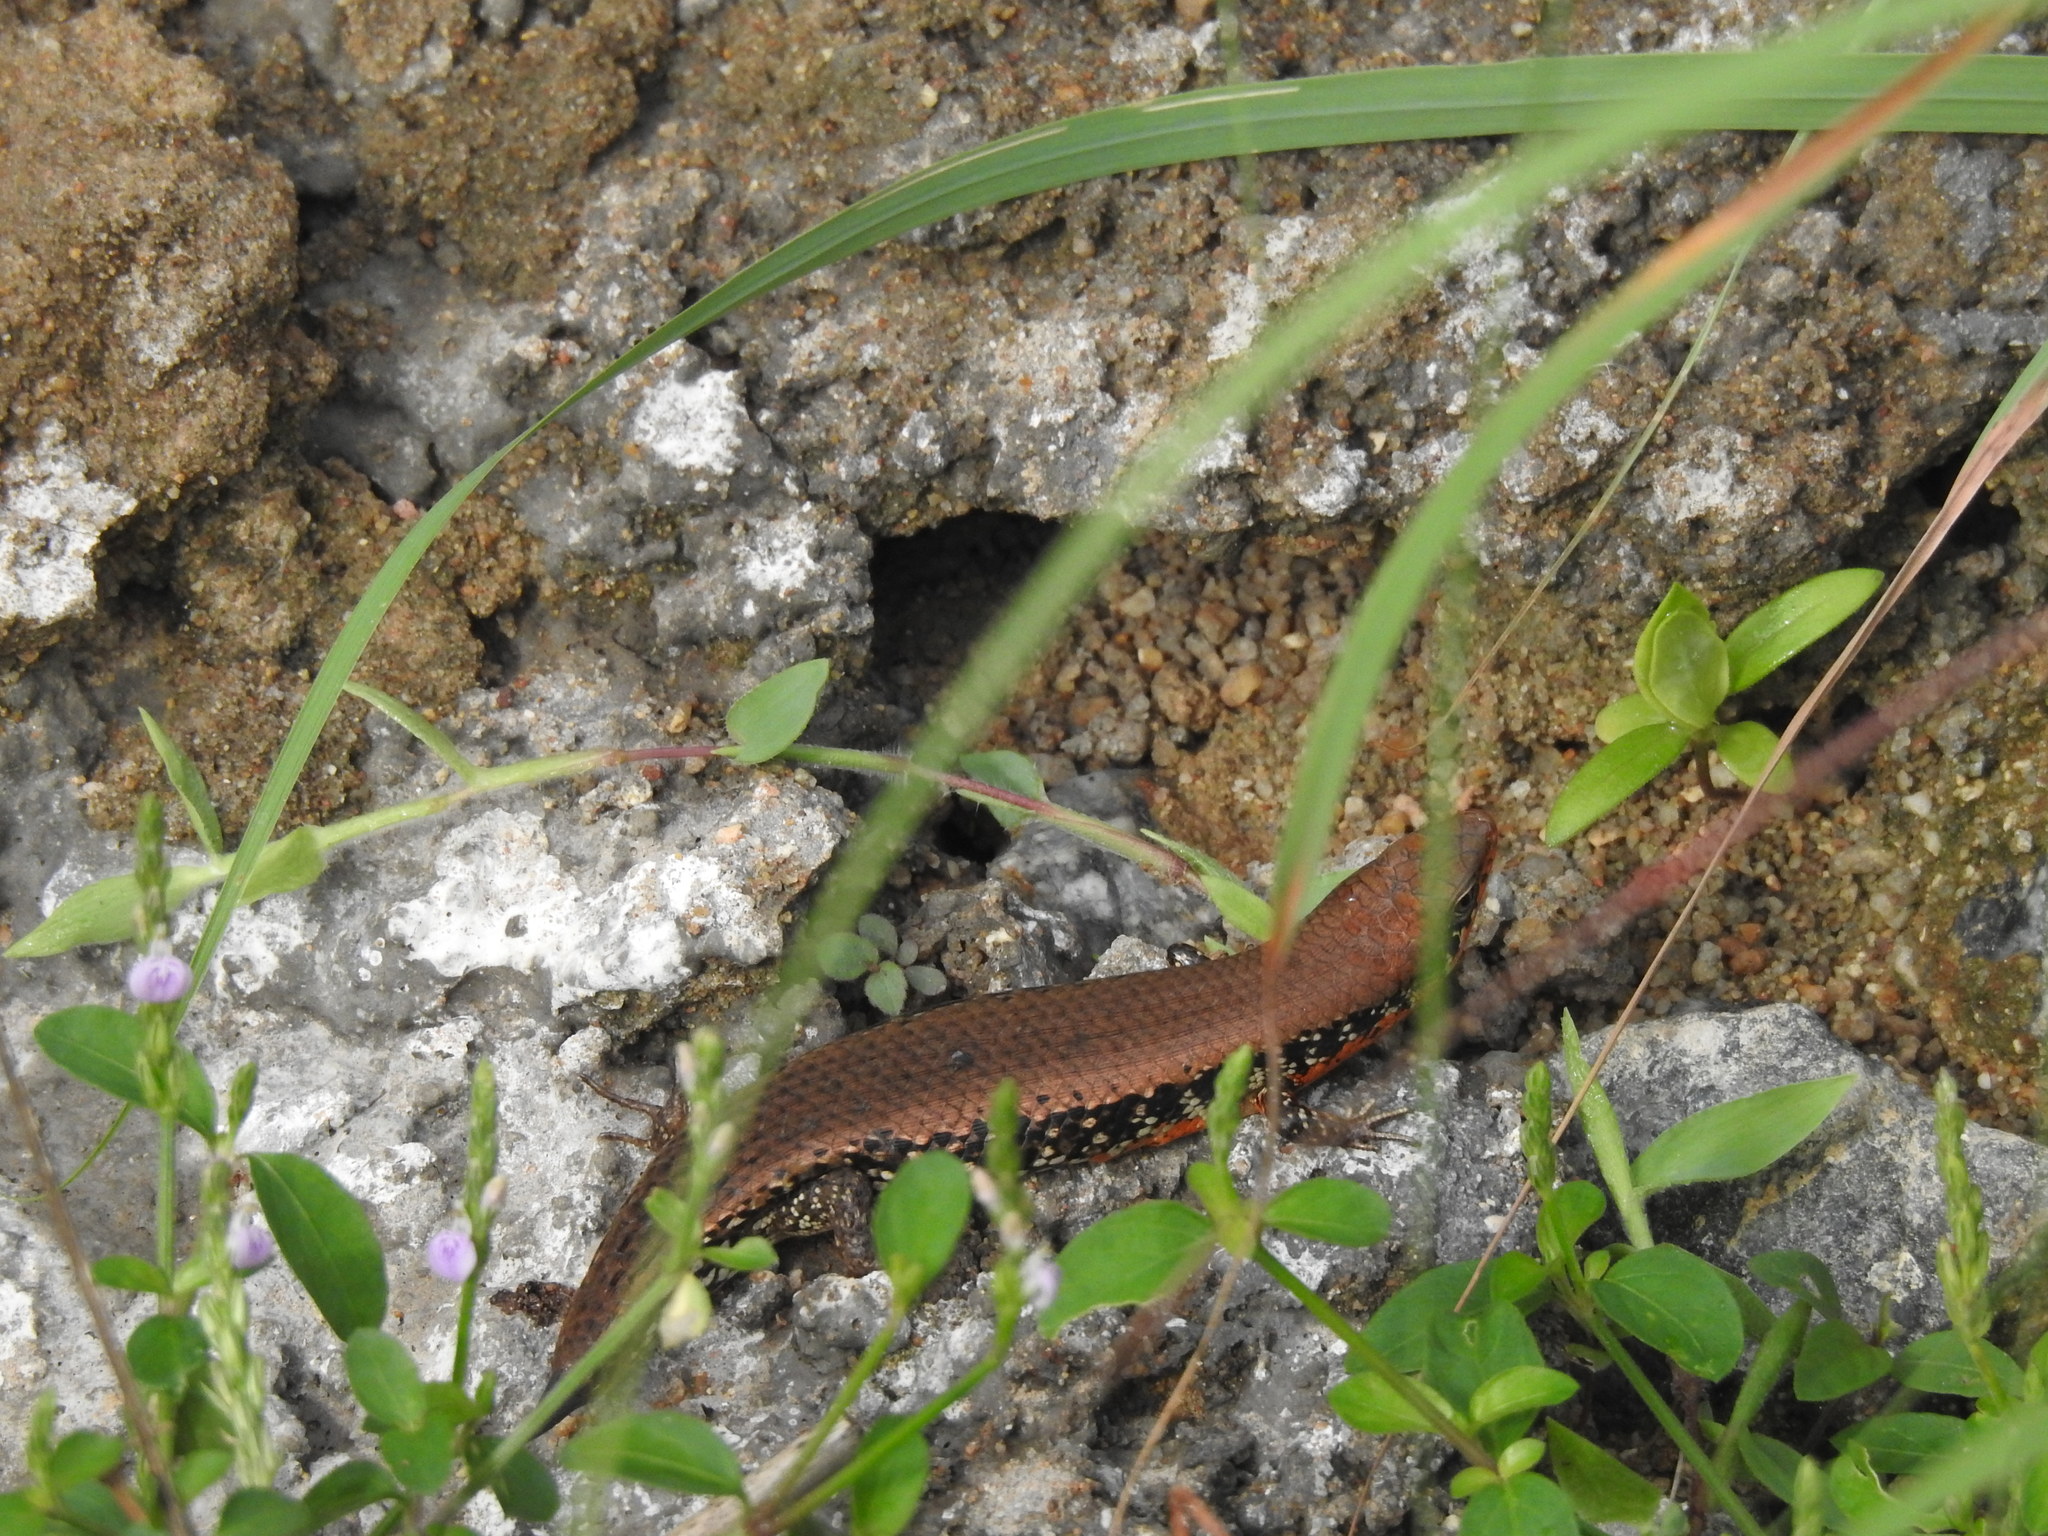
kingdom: Animalia
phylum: Chordata
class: Squamata
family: Scincidae
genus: Eutropis
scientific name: Eutropis macularia
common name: Bronze mabuya
